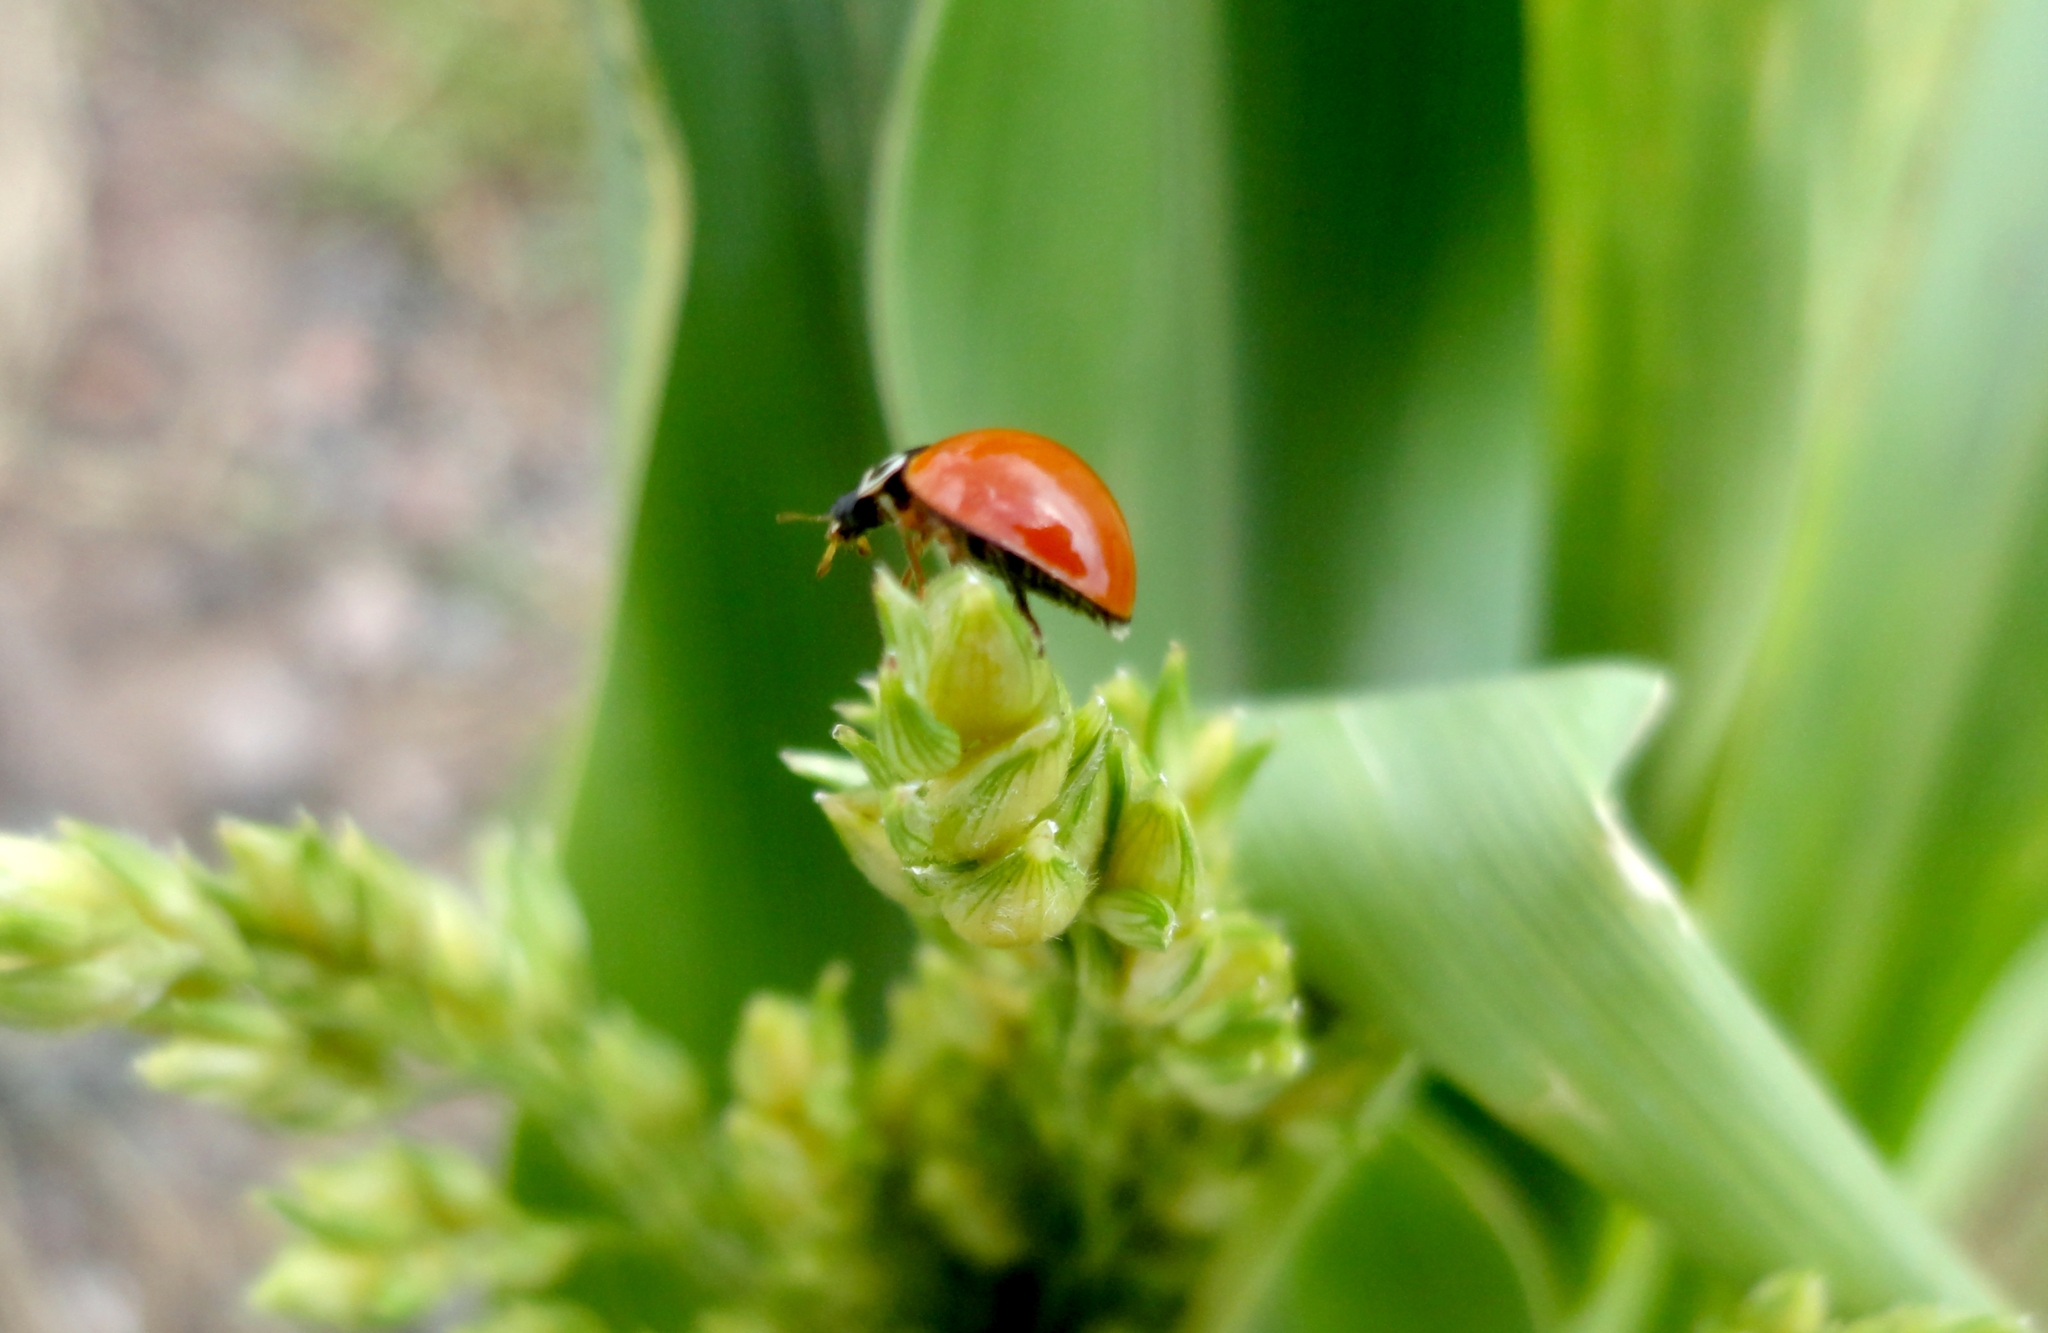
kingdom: Animalia
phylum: Arthropoda
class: Insecta
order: Coleoptera
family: Coccinellidae
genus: Cycloneda
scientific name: Cycloneda sanguinea
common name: Ladybird beetle
